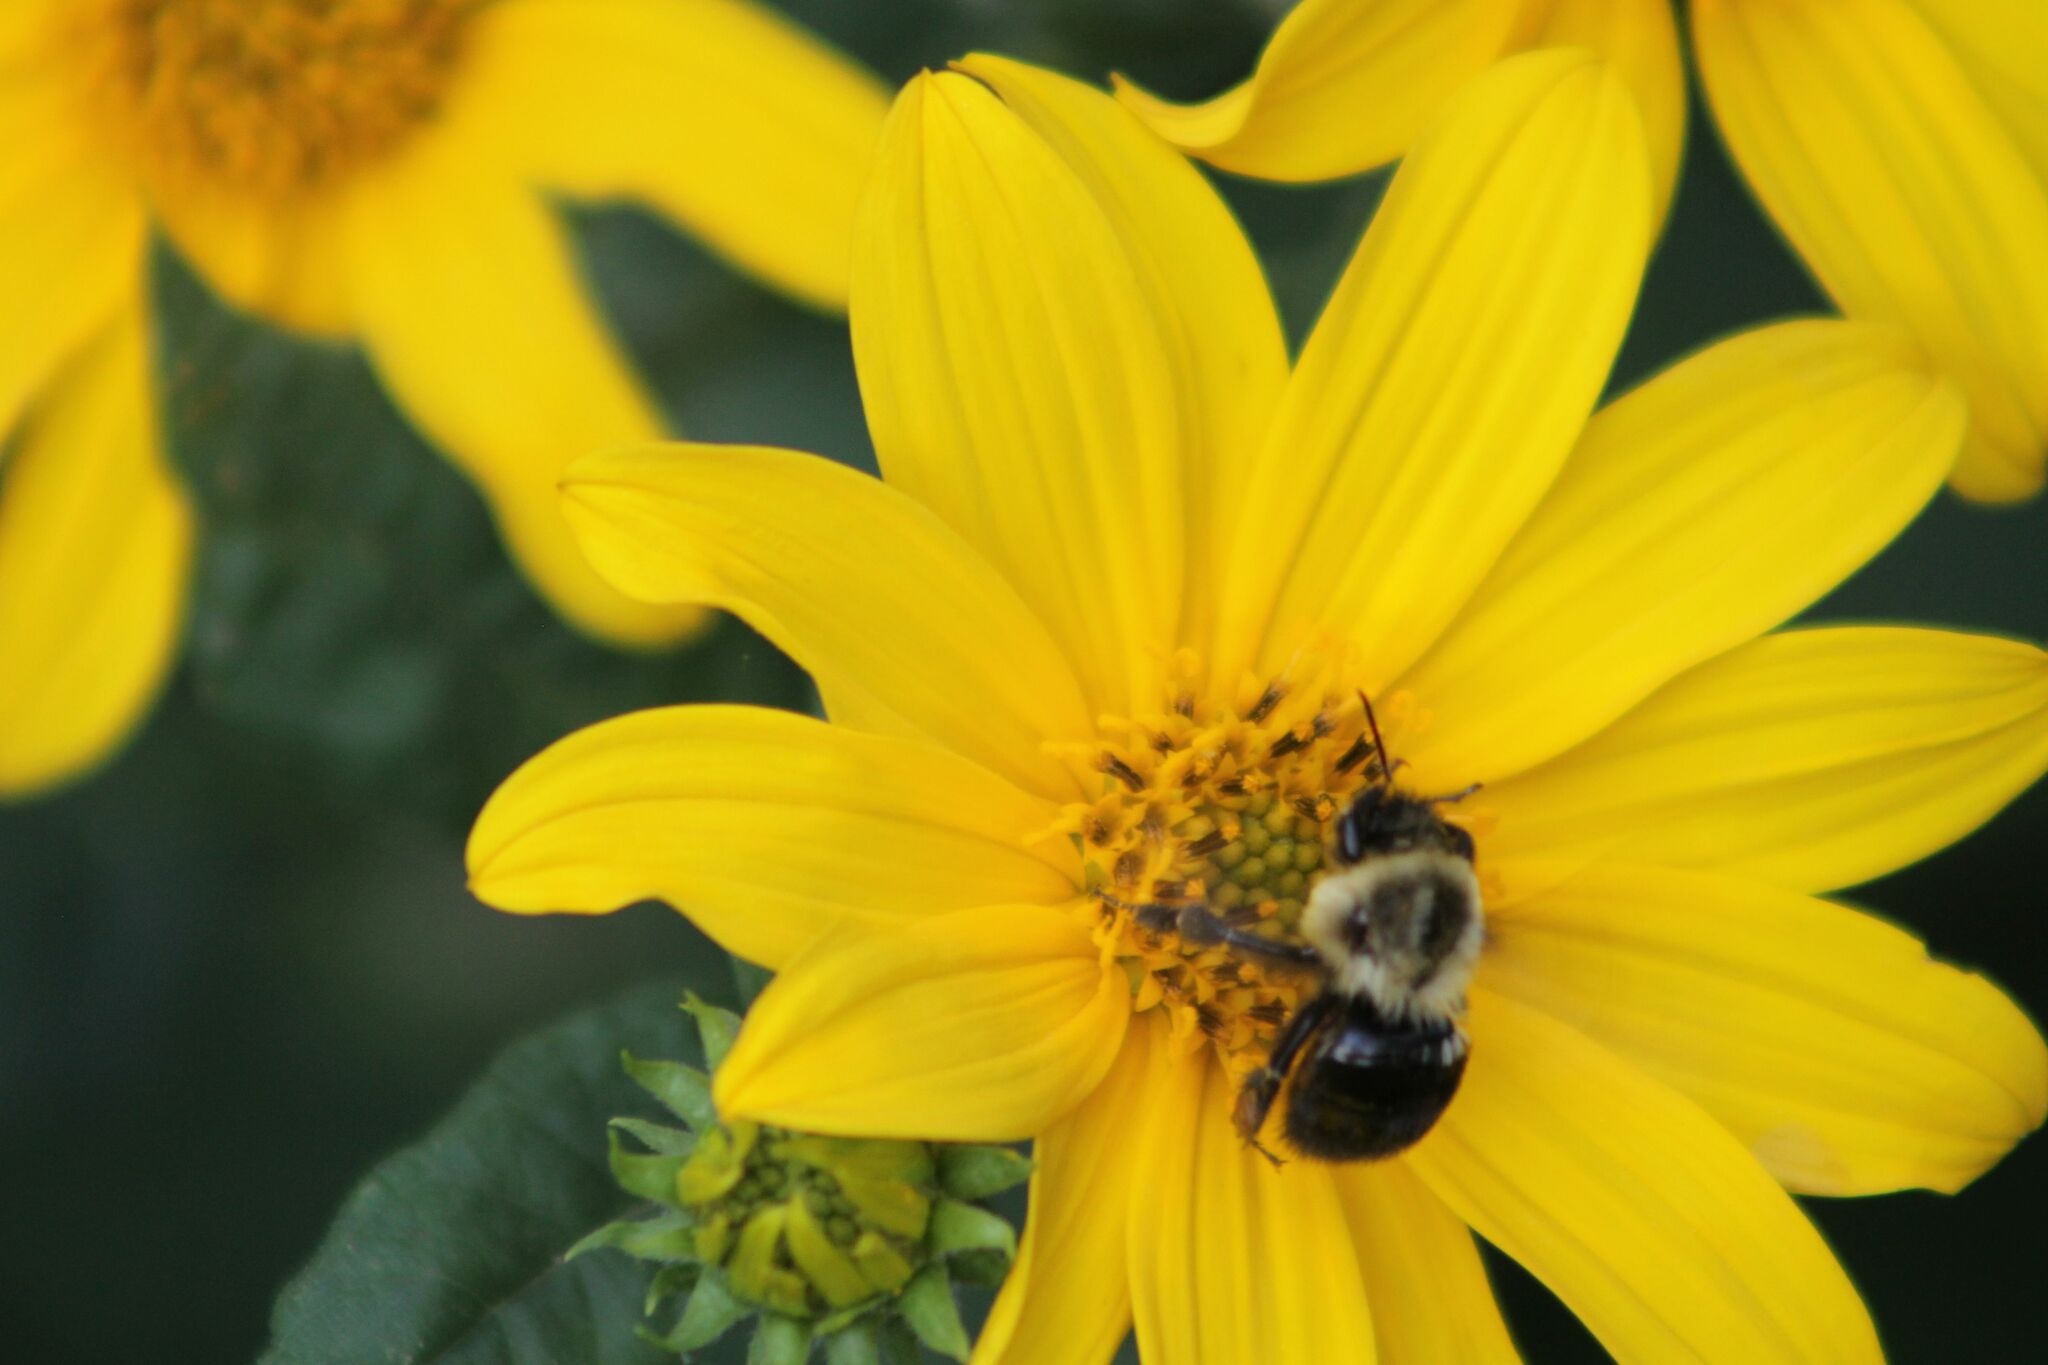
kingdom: Animalia
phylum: Arthropoda
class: Insecta
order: Hymenoptera
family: Apidae
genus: Bombus
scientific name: Bombus impatiens
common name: Common eastern bumble bee
